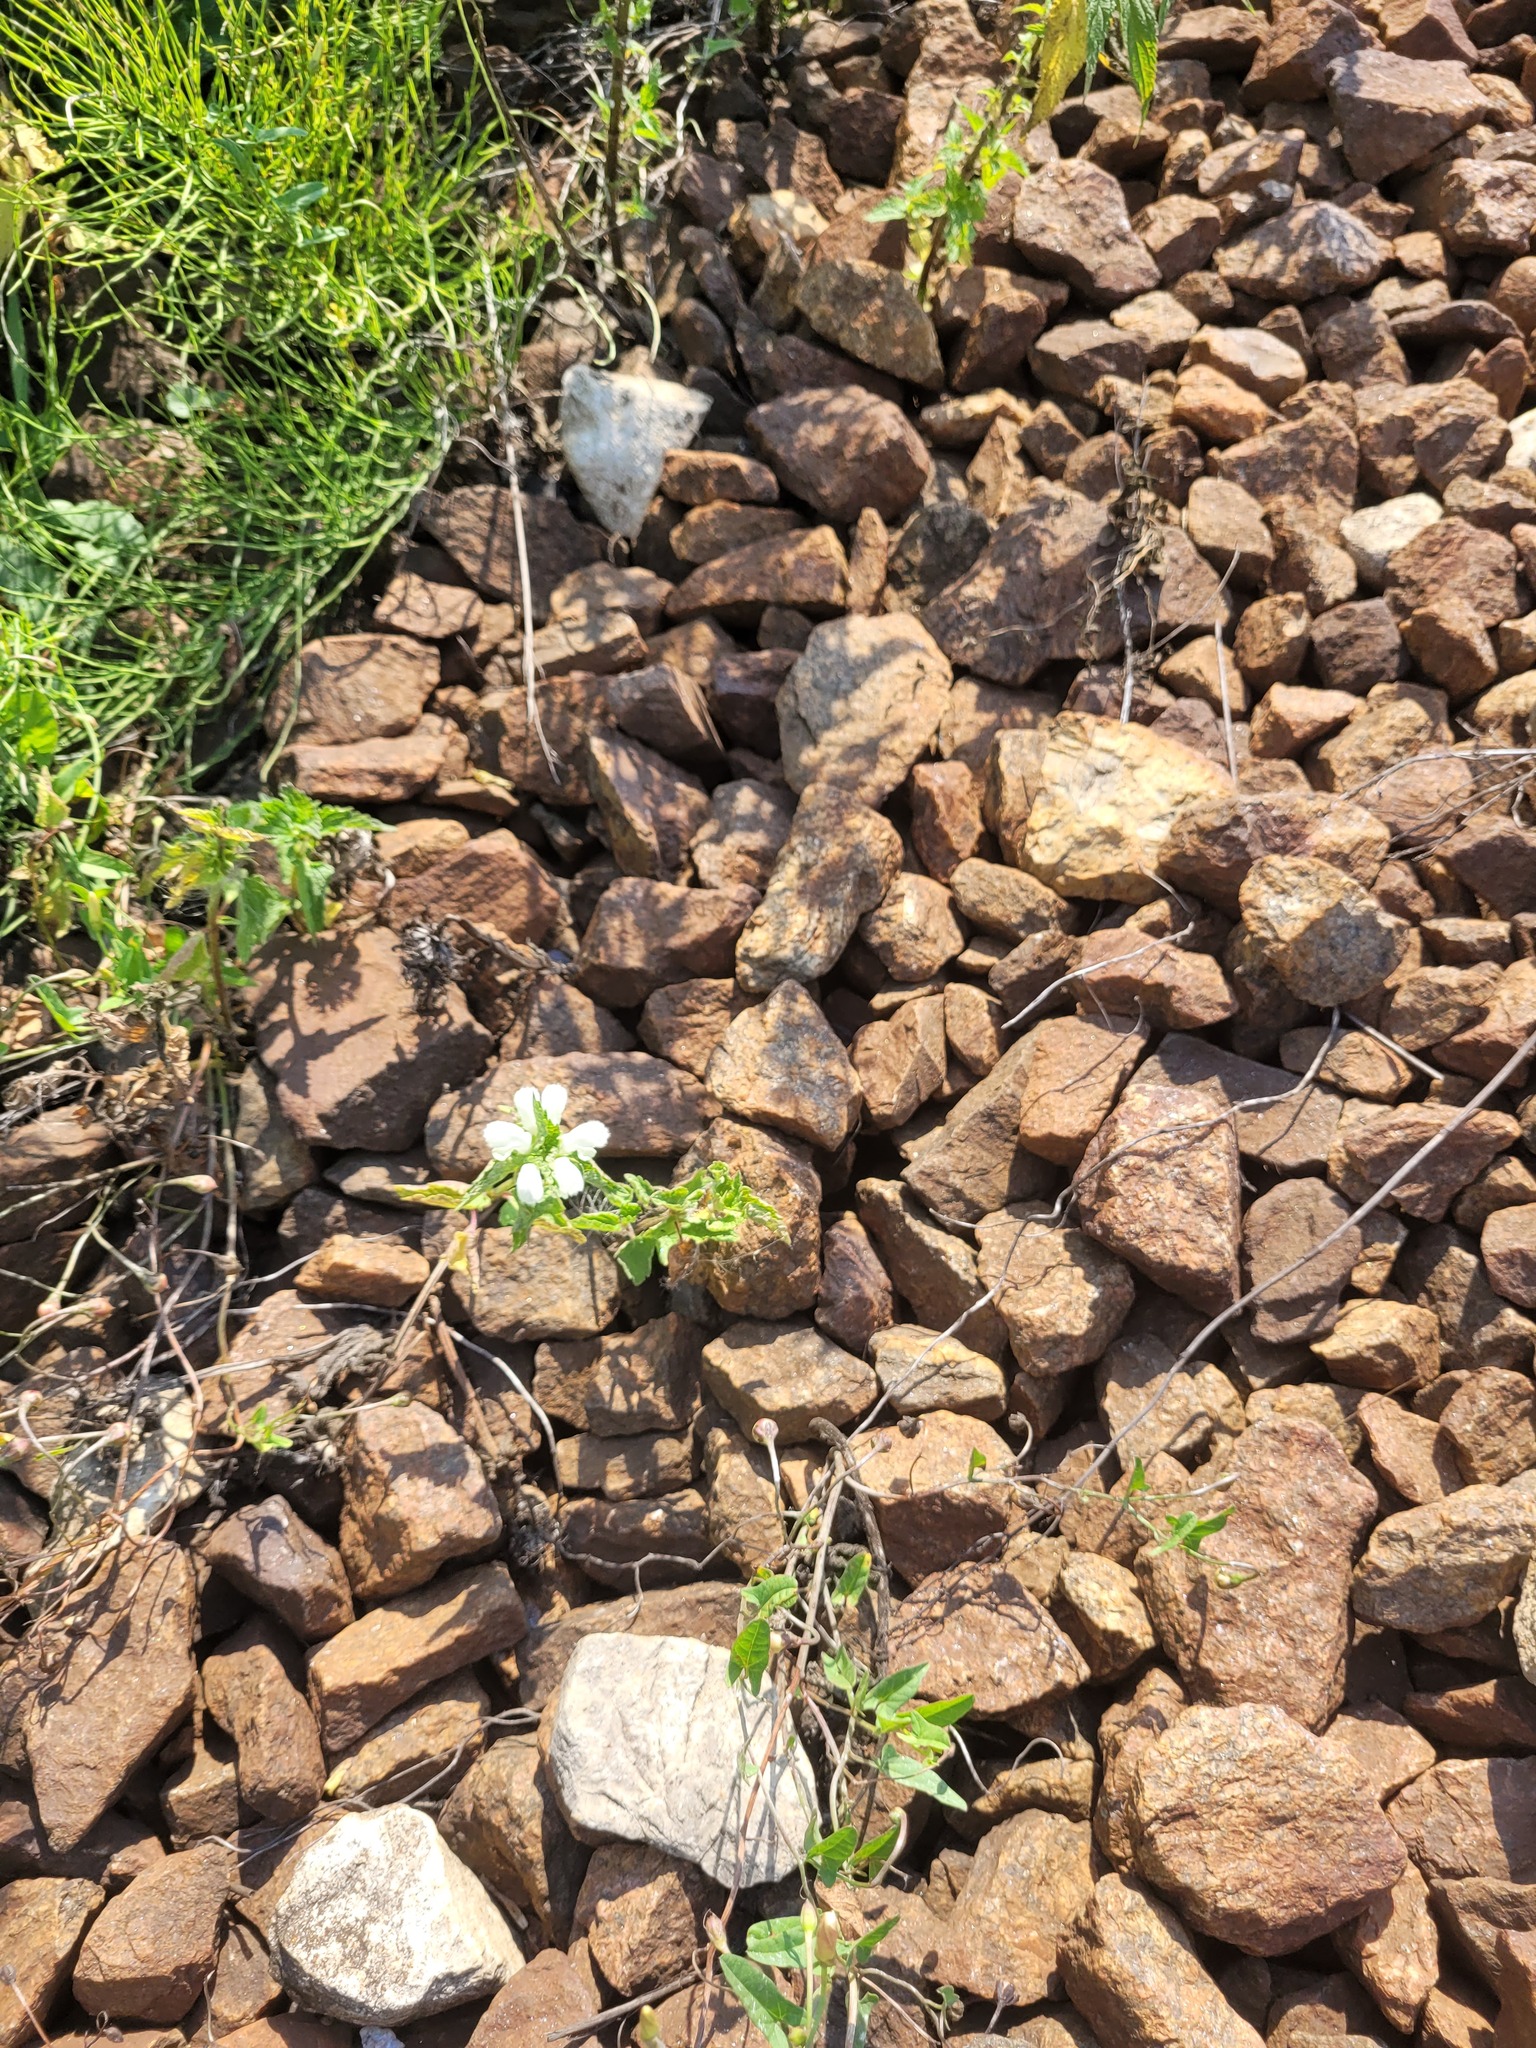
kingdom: Plantae
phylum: Tracheophyta
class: Magnoliopsida
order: Lamiales
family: Lamiaceae
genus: Lamium
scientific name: Lamium album
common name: White dead-nettle
